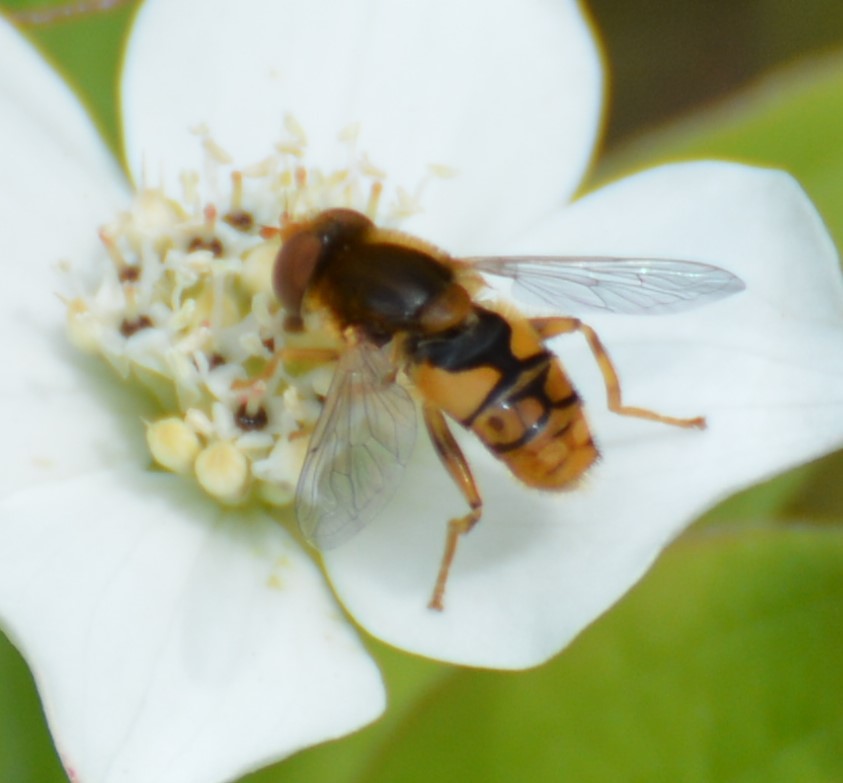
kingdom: Animalia
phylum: Arthropoda
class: Insecta
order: Diptera
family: Syrphidae
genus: Parhelophilus
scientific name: Parhelophilus obsoletus
